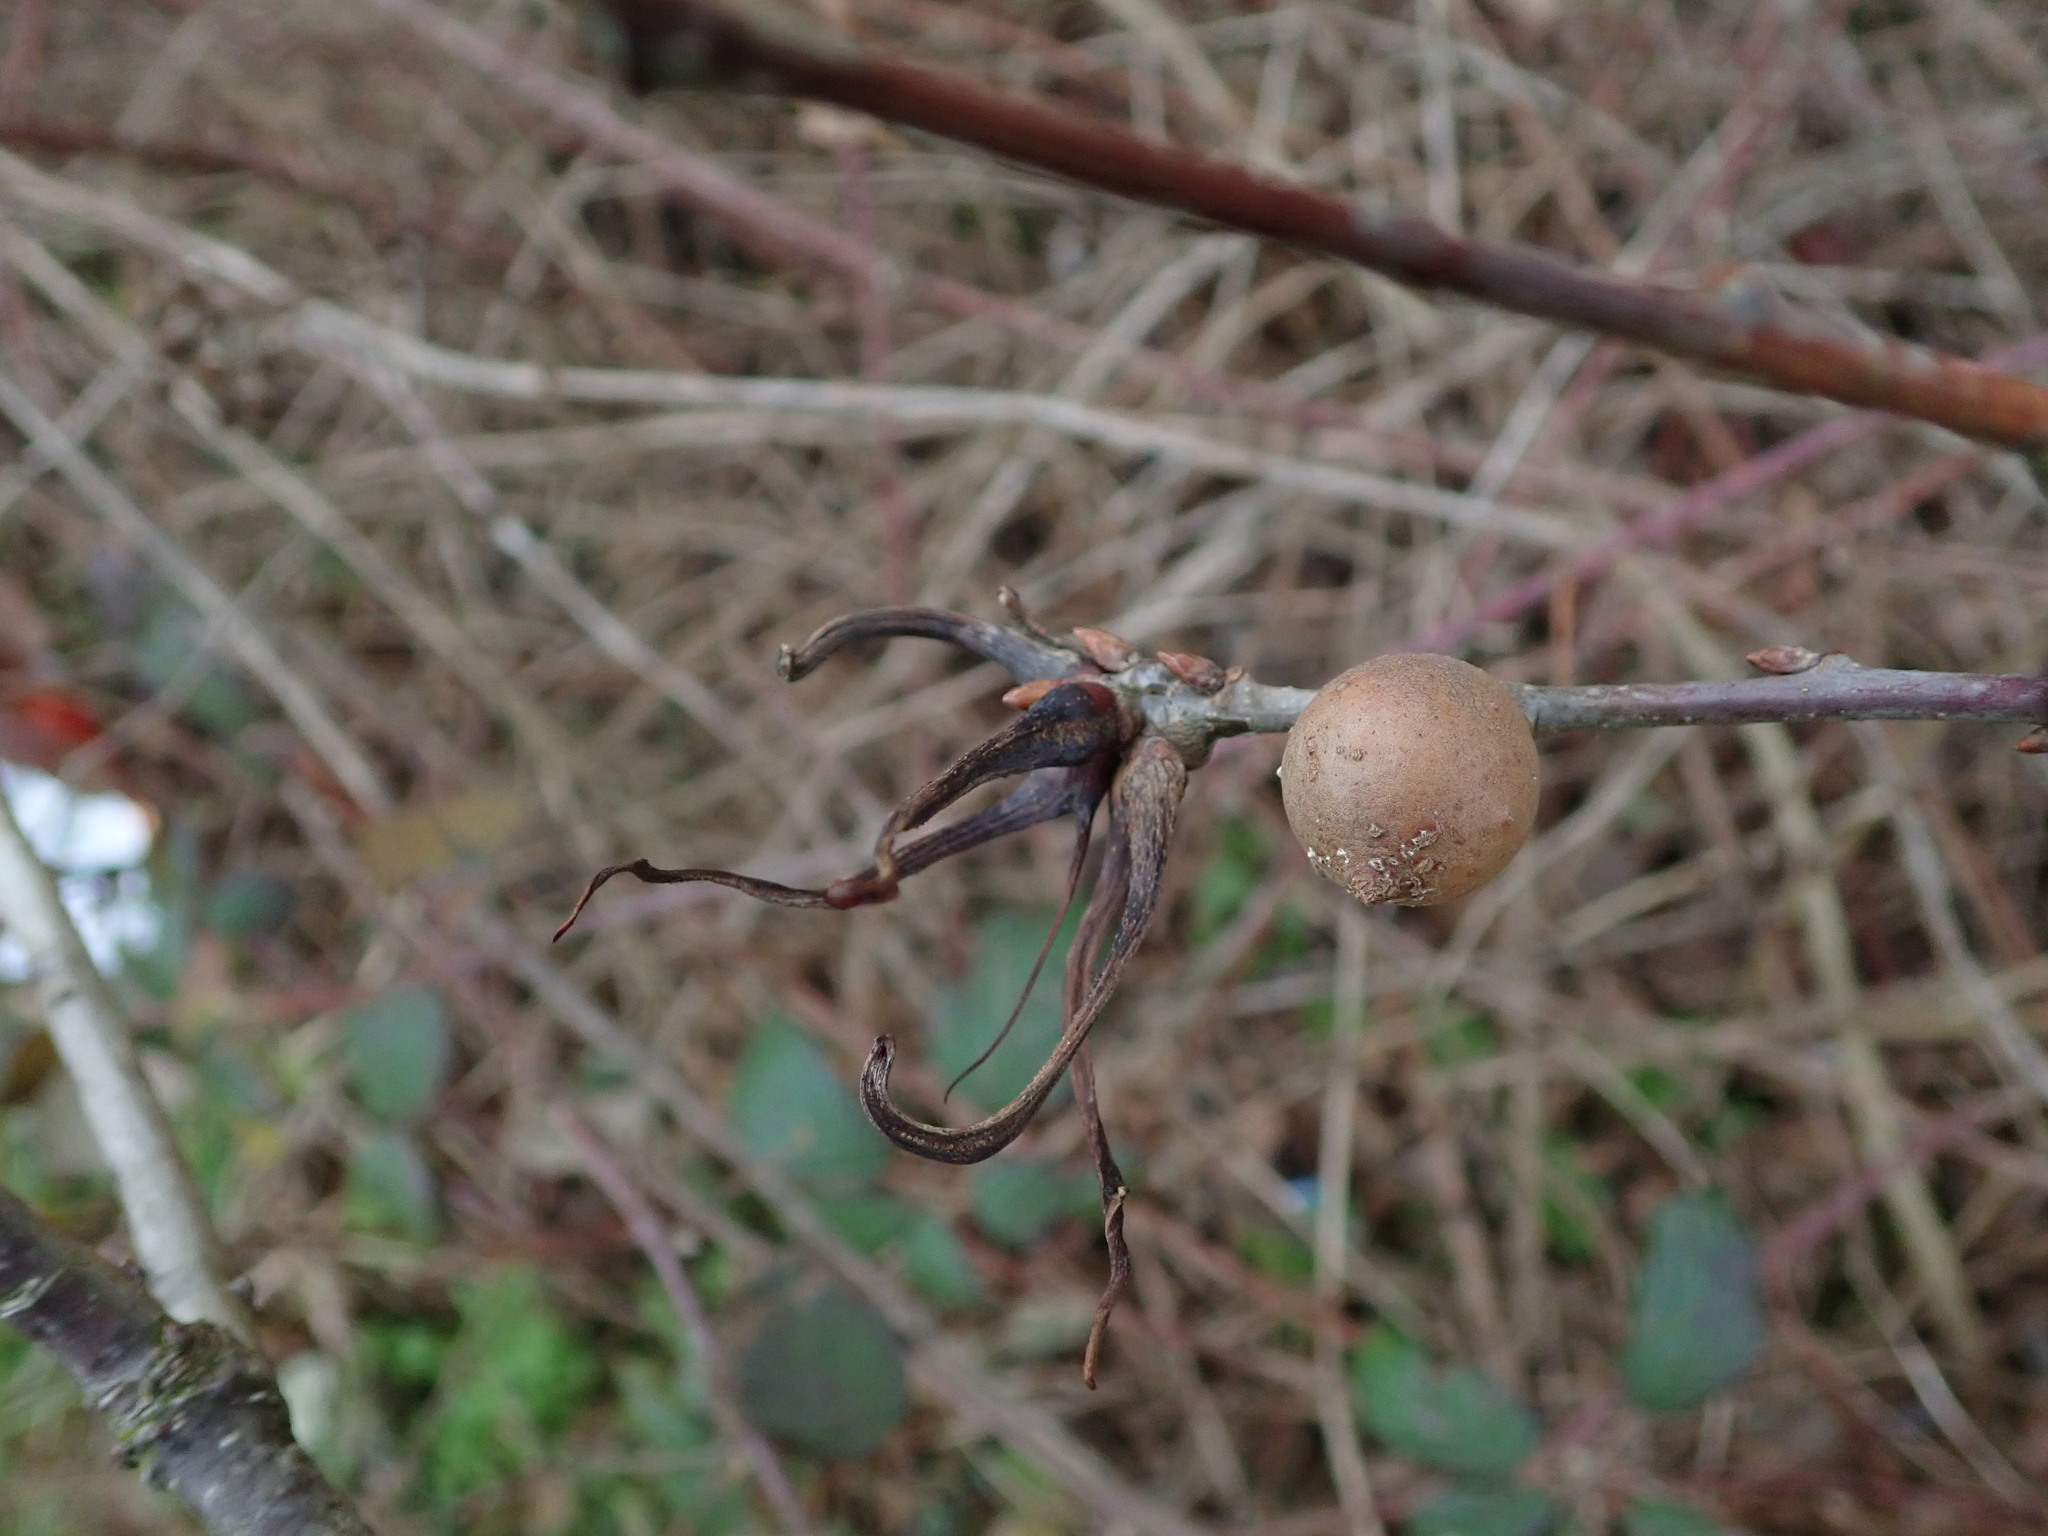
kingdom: Animalia
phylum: Arthropoda
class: Insecta
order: Hymenoptera
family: Cynipidae
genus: Andricus
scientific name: Andricus aries
